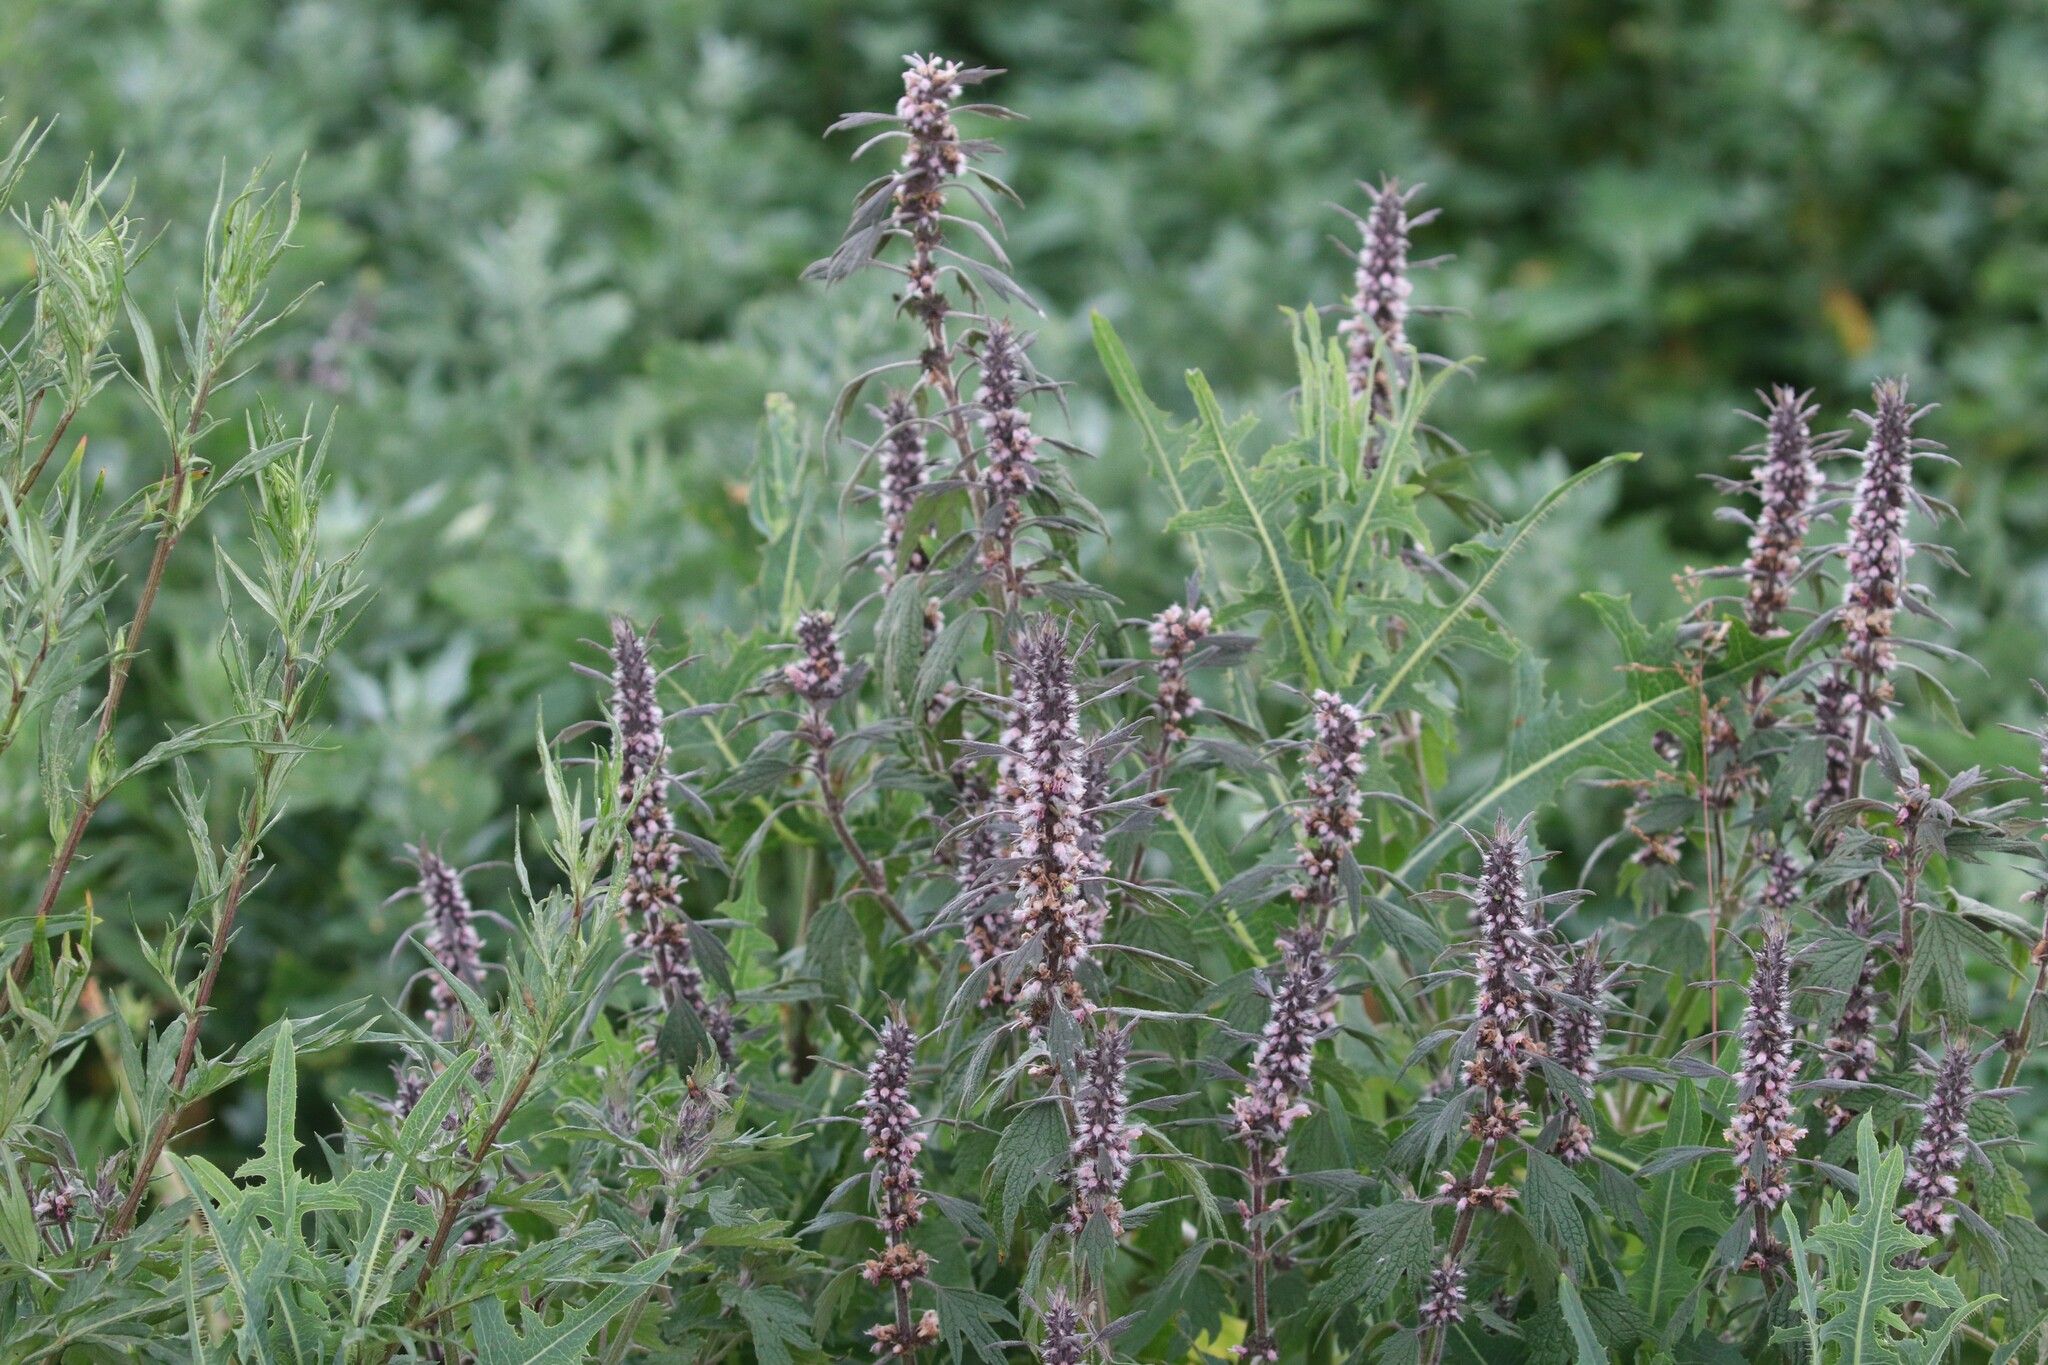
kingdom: Plantae
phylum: Tracheophyta
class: Magnoliopsida
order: Lamiales
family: Lamiaceae
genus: Leonurus
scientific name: Leonurus quinquelobatus
